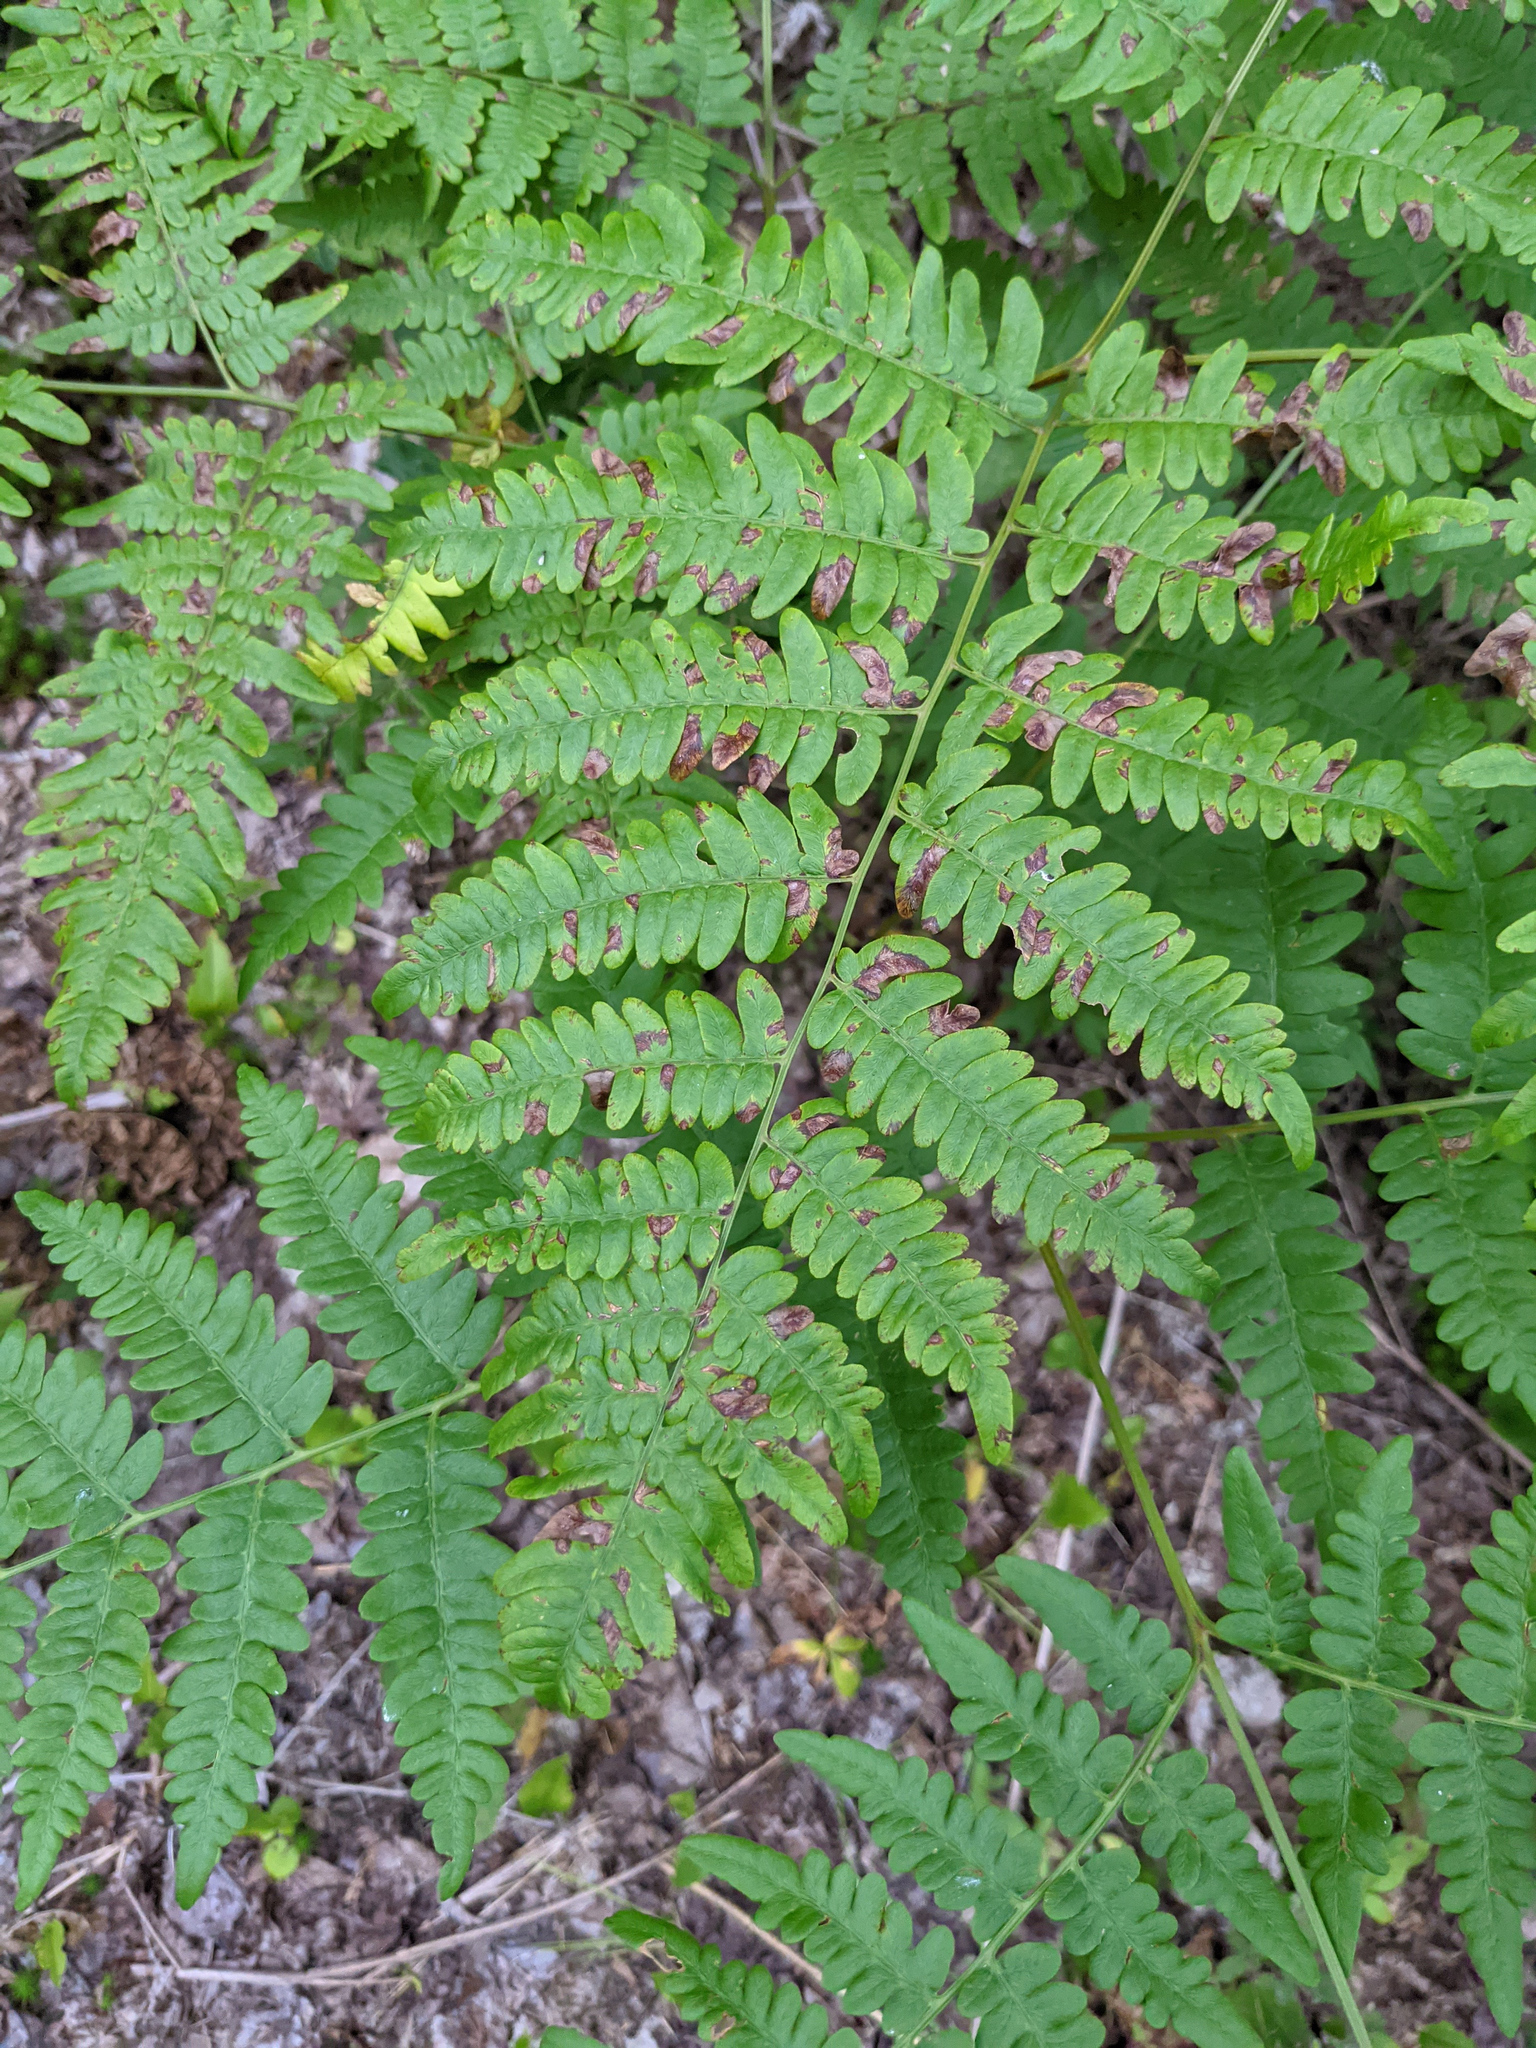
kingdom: Plantae
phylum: Tracheophyta
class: Polypodiopsida
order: Polypodiales
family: Dennstaedtiaceae
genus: Pteridium
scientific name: Pteridium aquilinum
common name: Bracken
